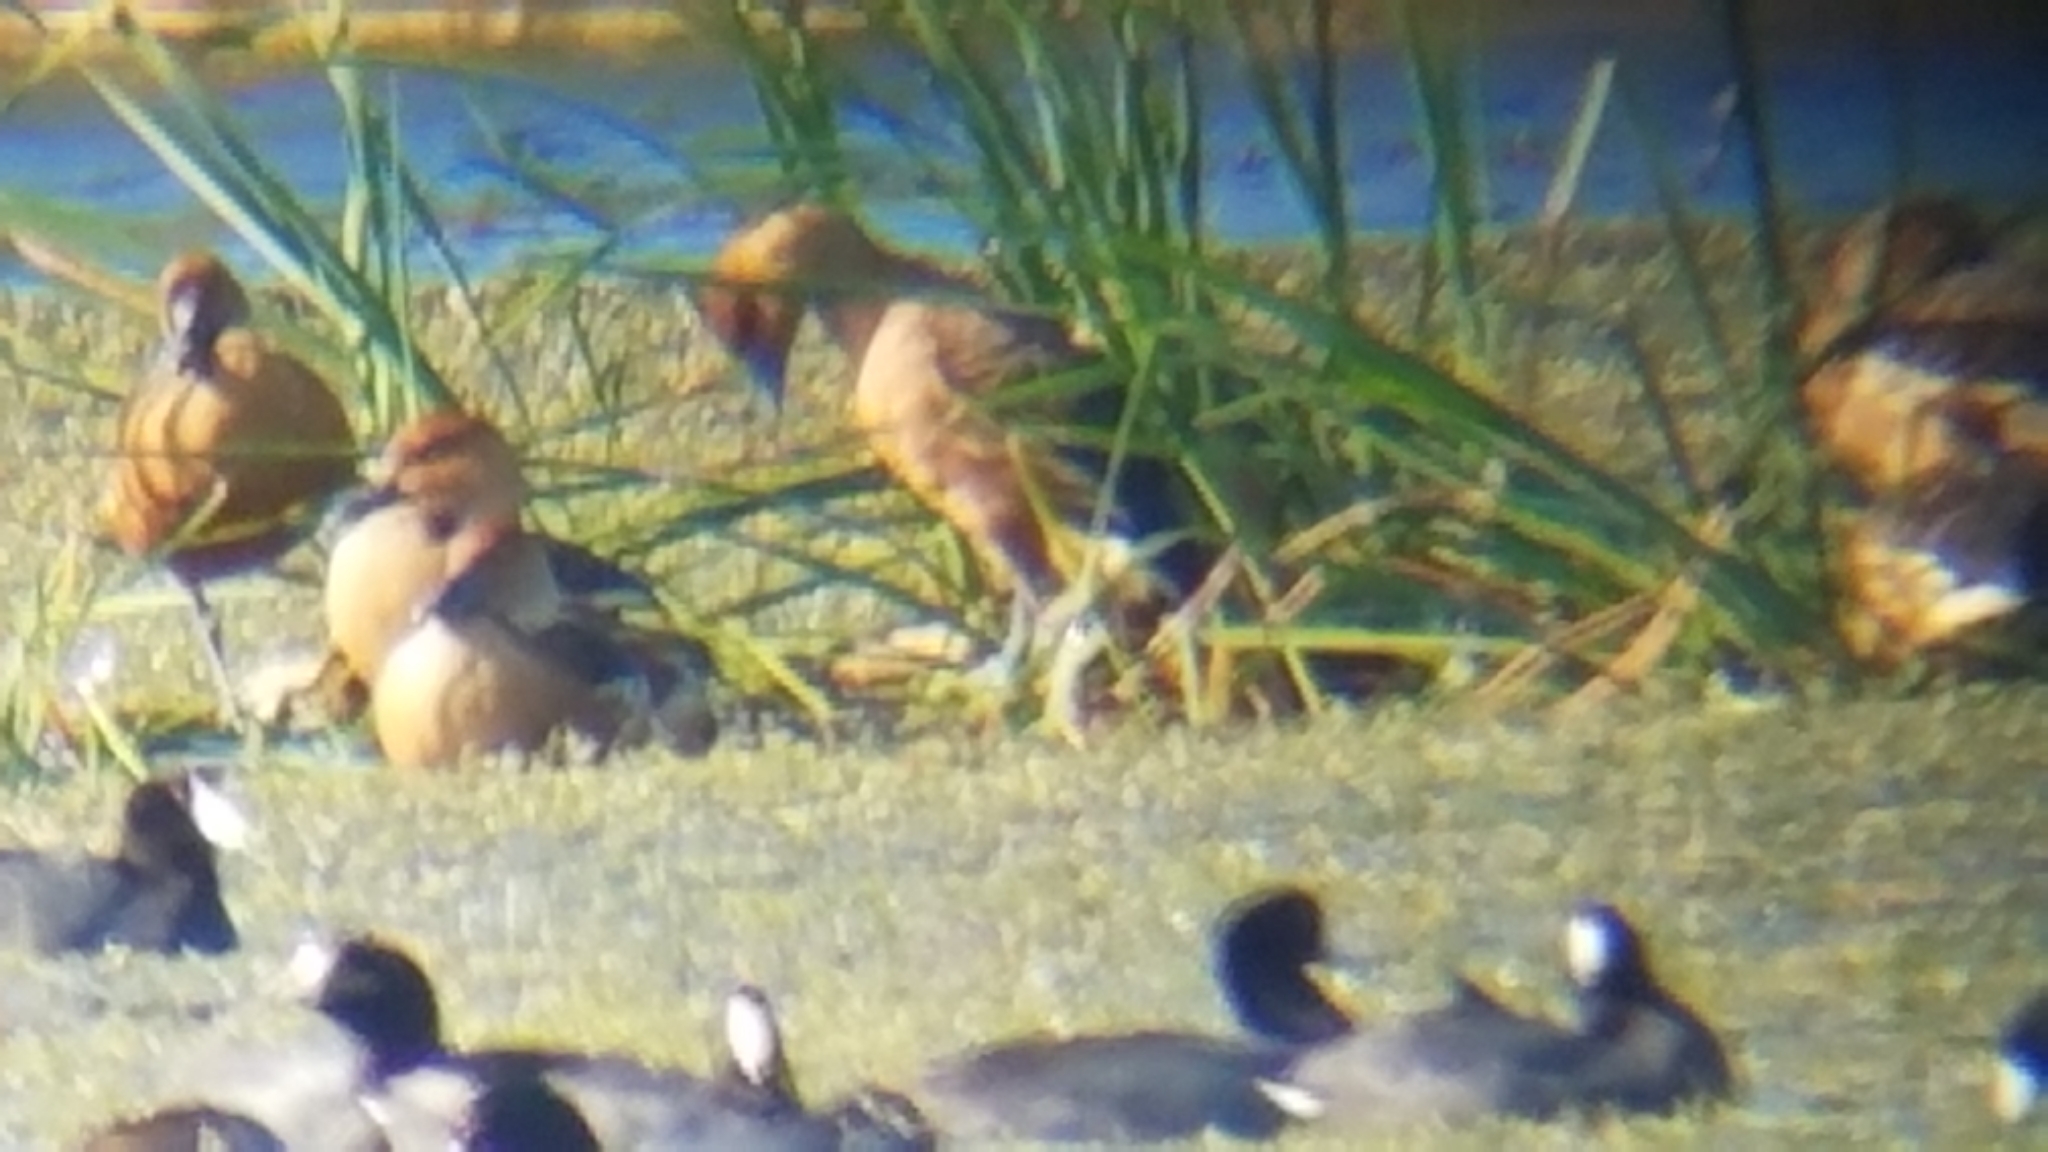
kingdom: Animalia
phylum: Chordata
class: Aves
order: Anseriformes
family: Anatidae
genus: Dendrocygna
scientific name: Dendrocygna bicolor
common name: Fulvous whistling duck
